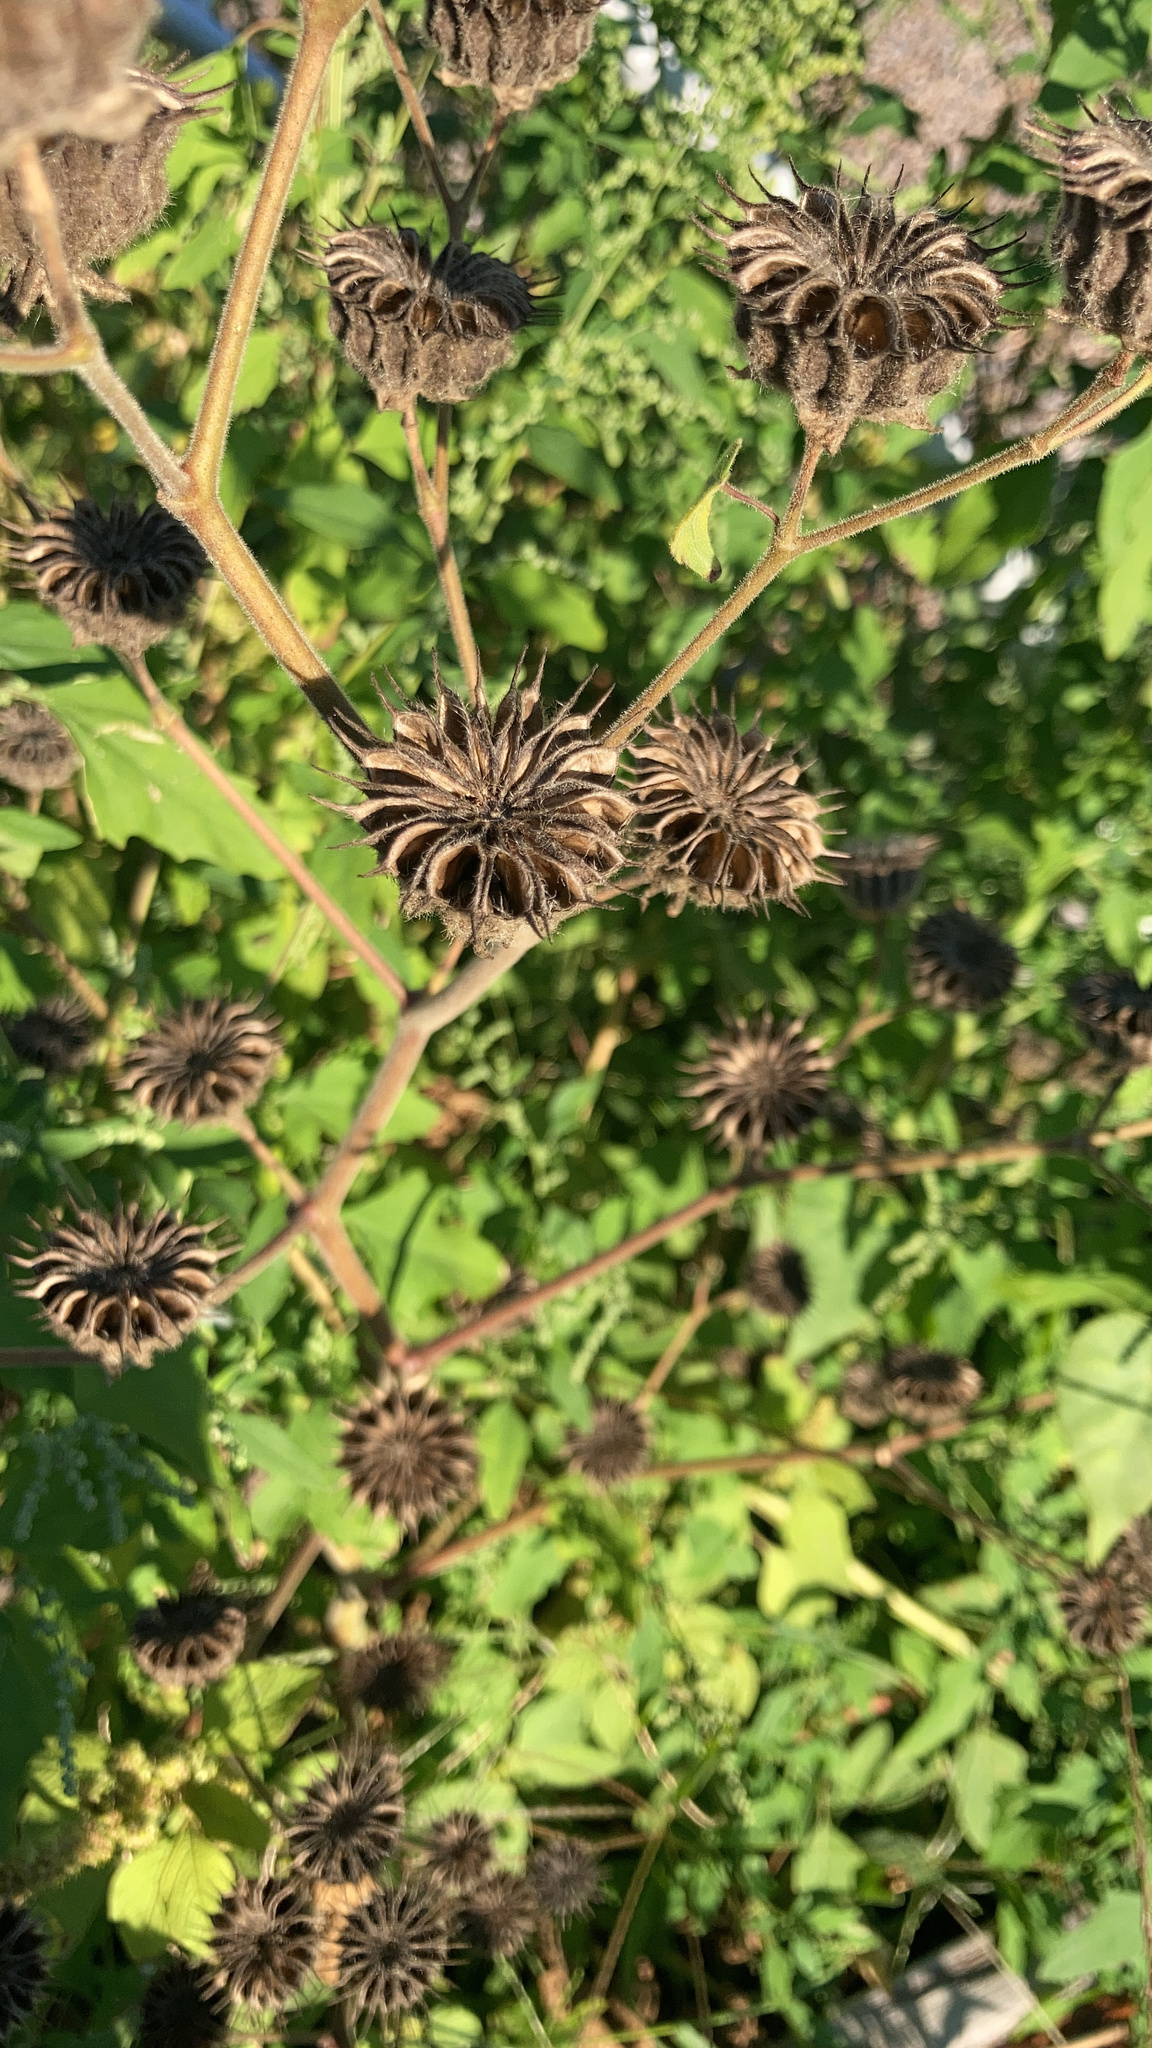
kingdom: Plantae
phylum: Tracheophyta
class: Magnoliopsida
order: Malvales
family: Malvaceae
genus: Abutilon
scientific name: Abutilon theophrasti
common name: Velvetleaf
